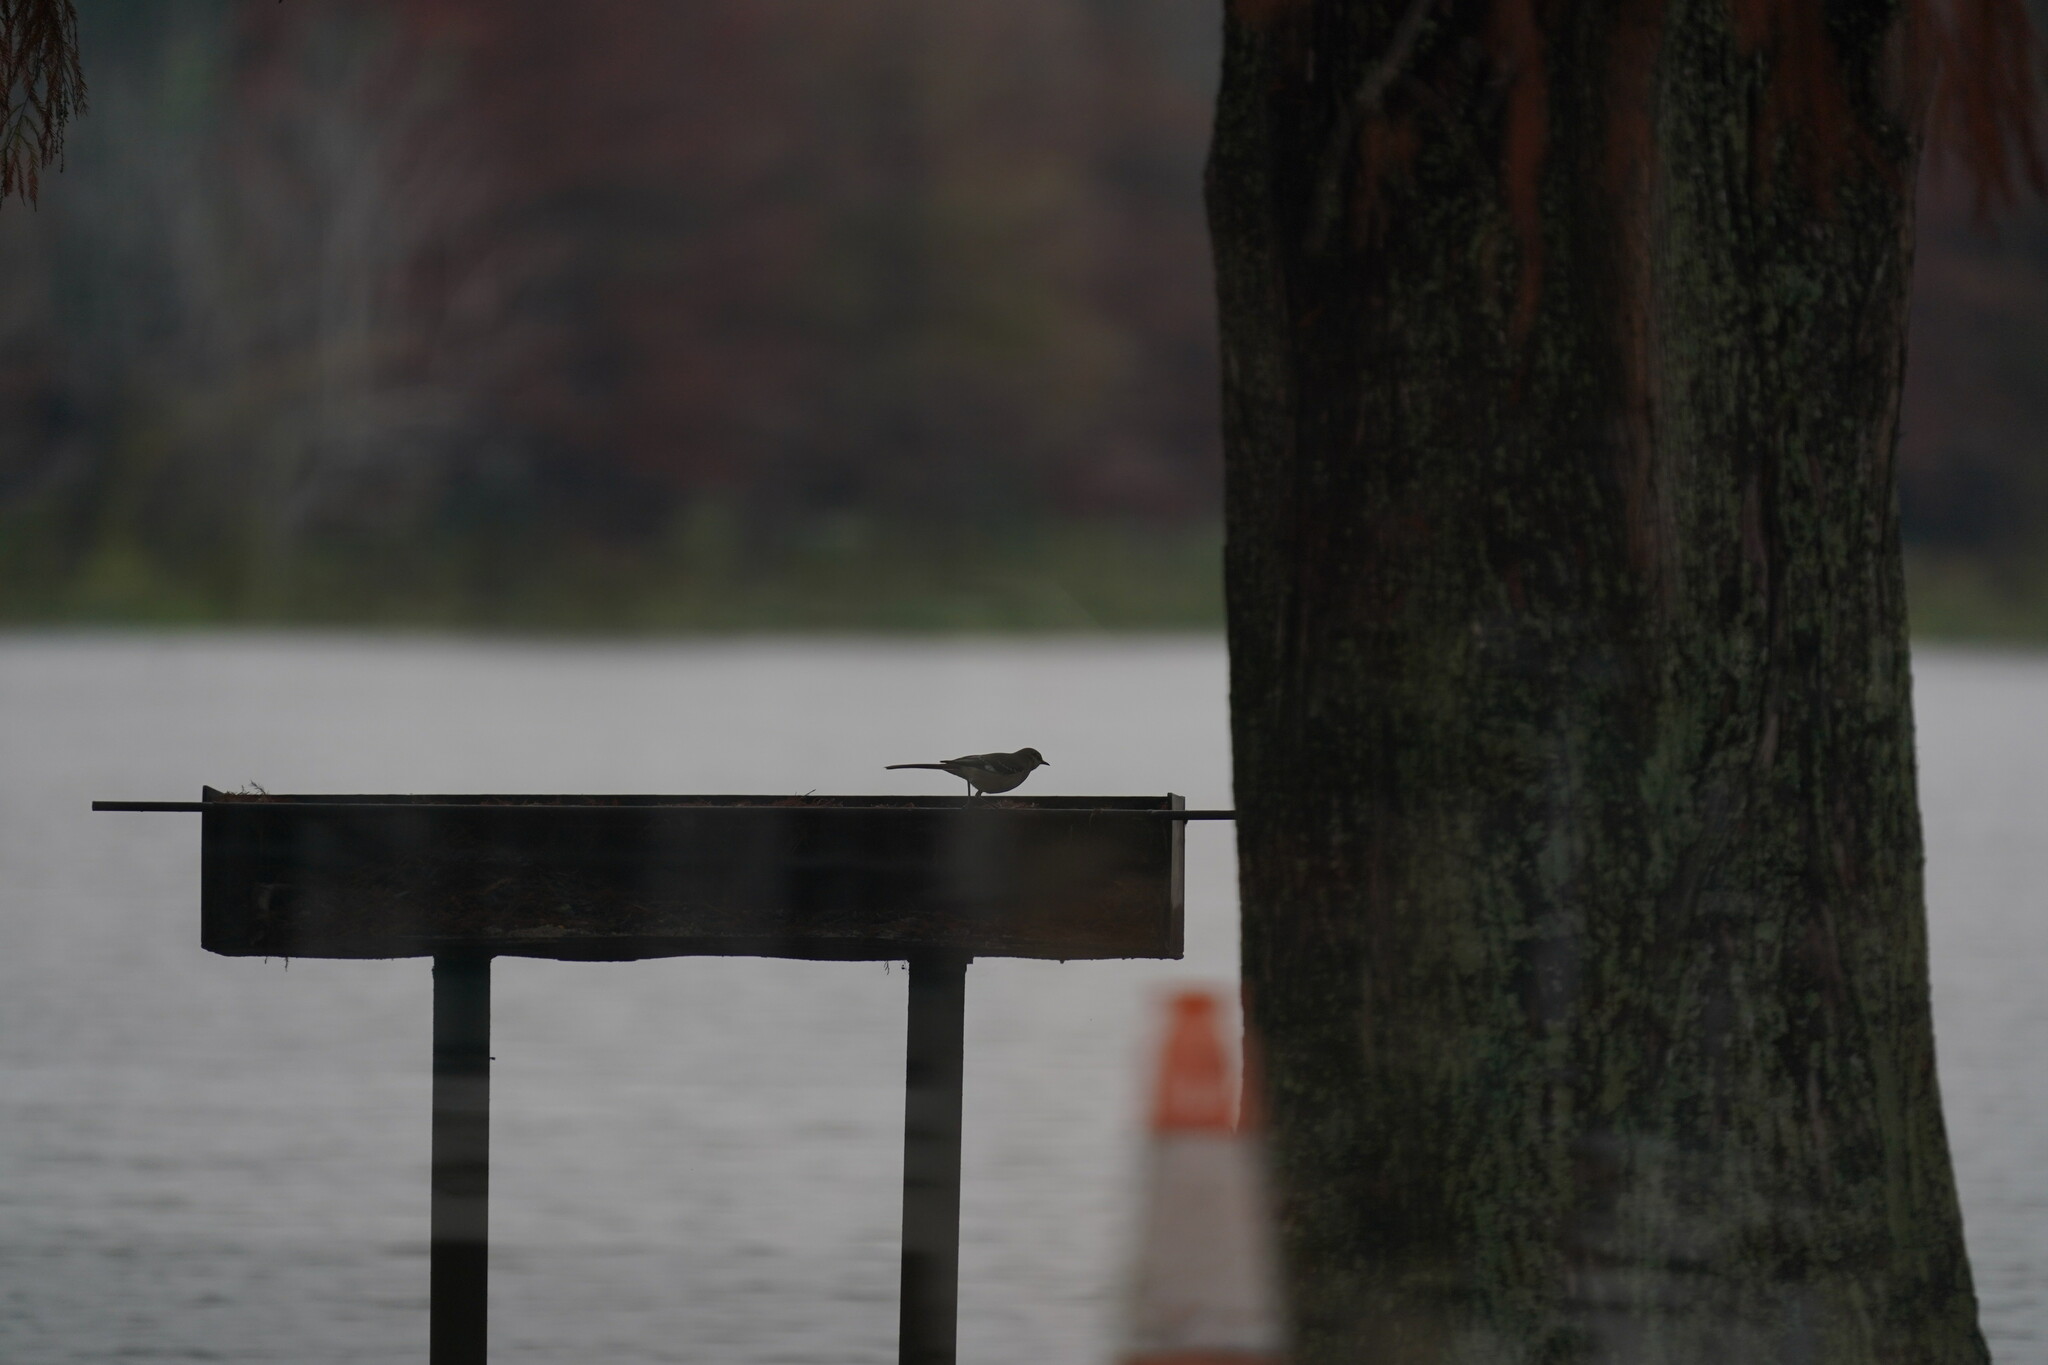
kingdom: Animalia
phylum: Chordata
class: Aves
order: Passeriformes
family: Mimidae
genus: Mimus
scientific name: Mimus polyglottos
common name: Northern mockingbird
